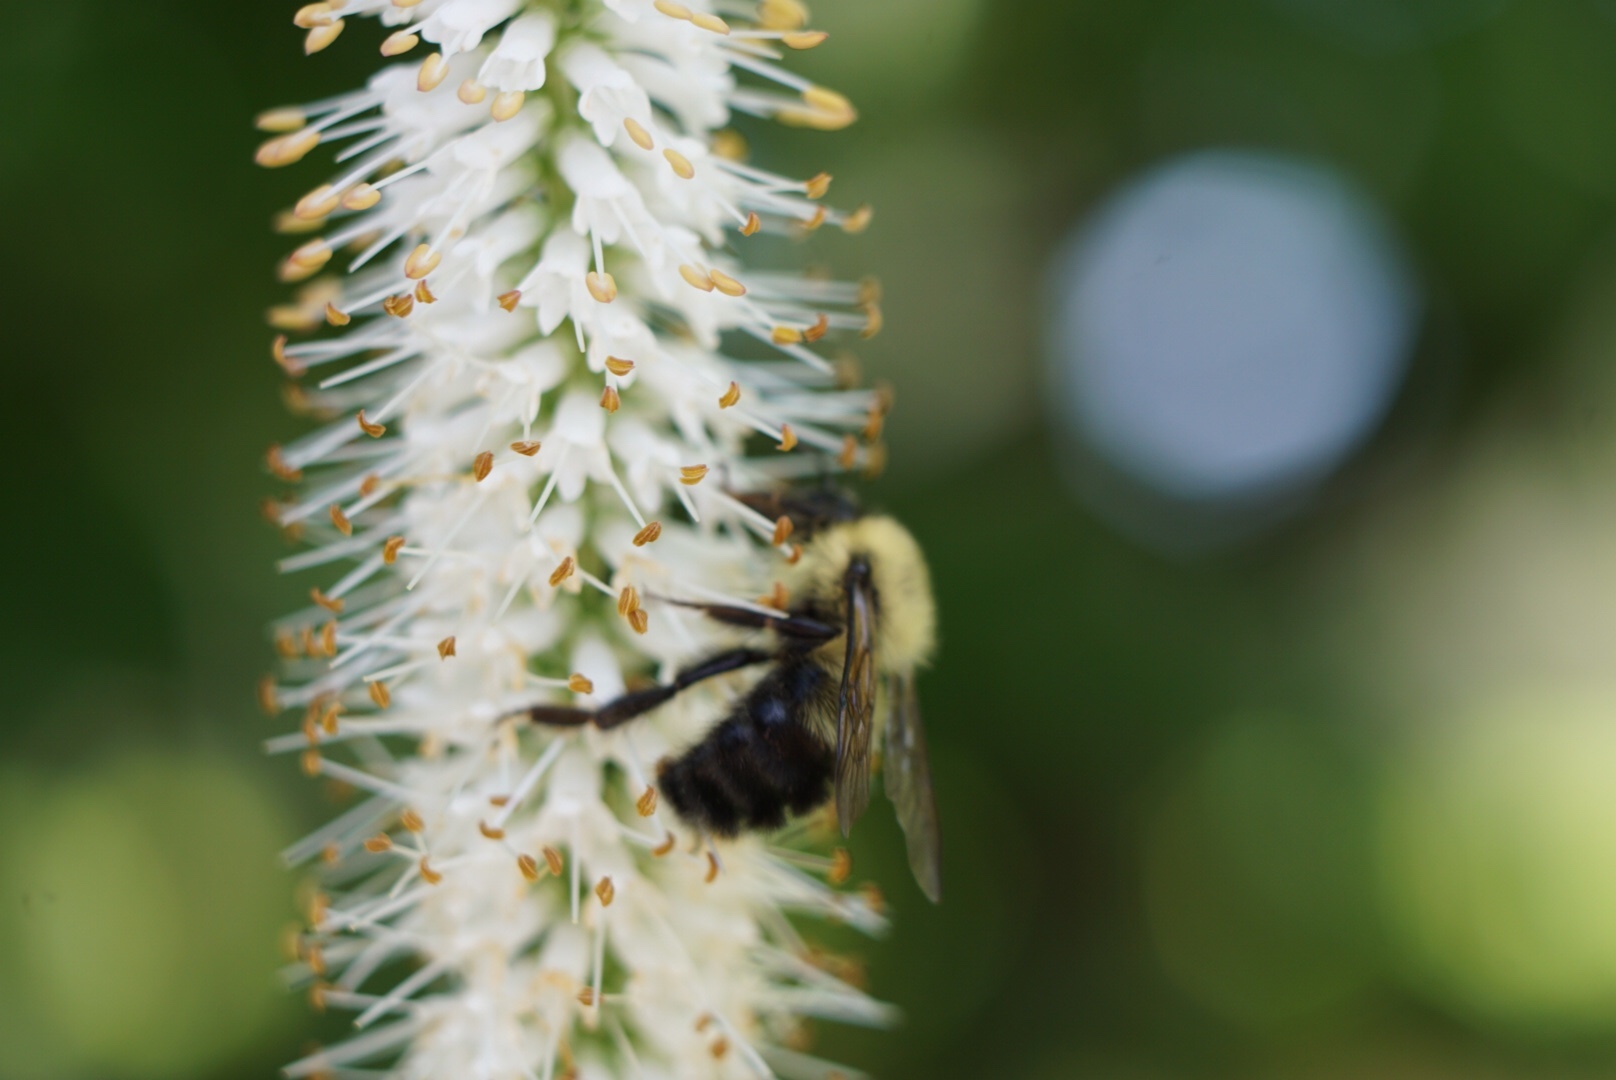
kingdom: Animalia
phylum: Arthropoda
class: Insecta
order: Hymenoptera
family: Apidae
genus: Bombus
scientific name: Bombus bimaculatus
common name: Two-spotted bumble bee
